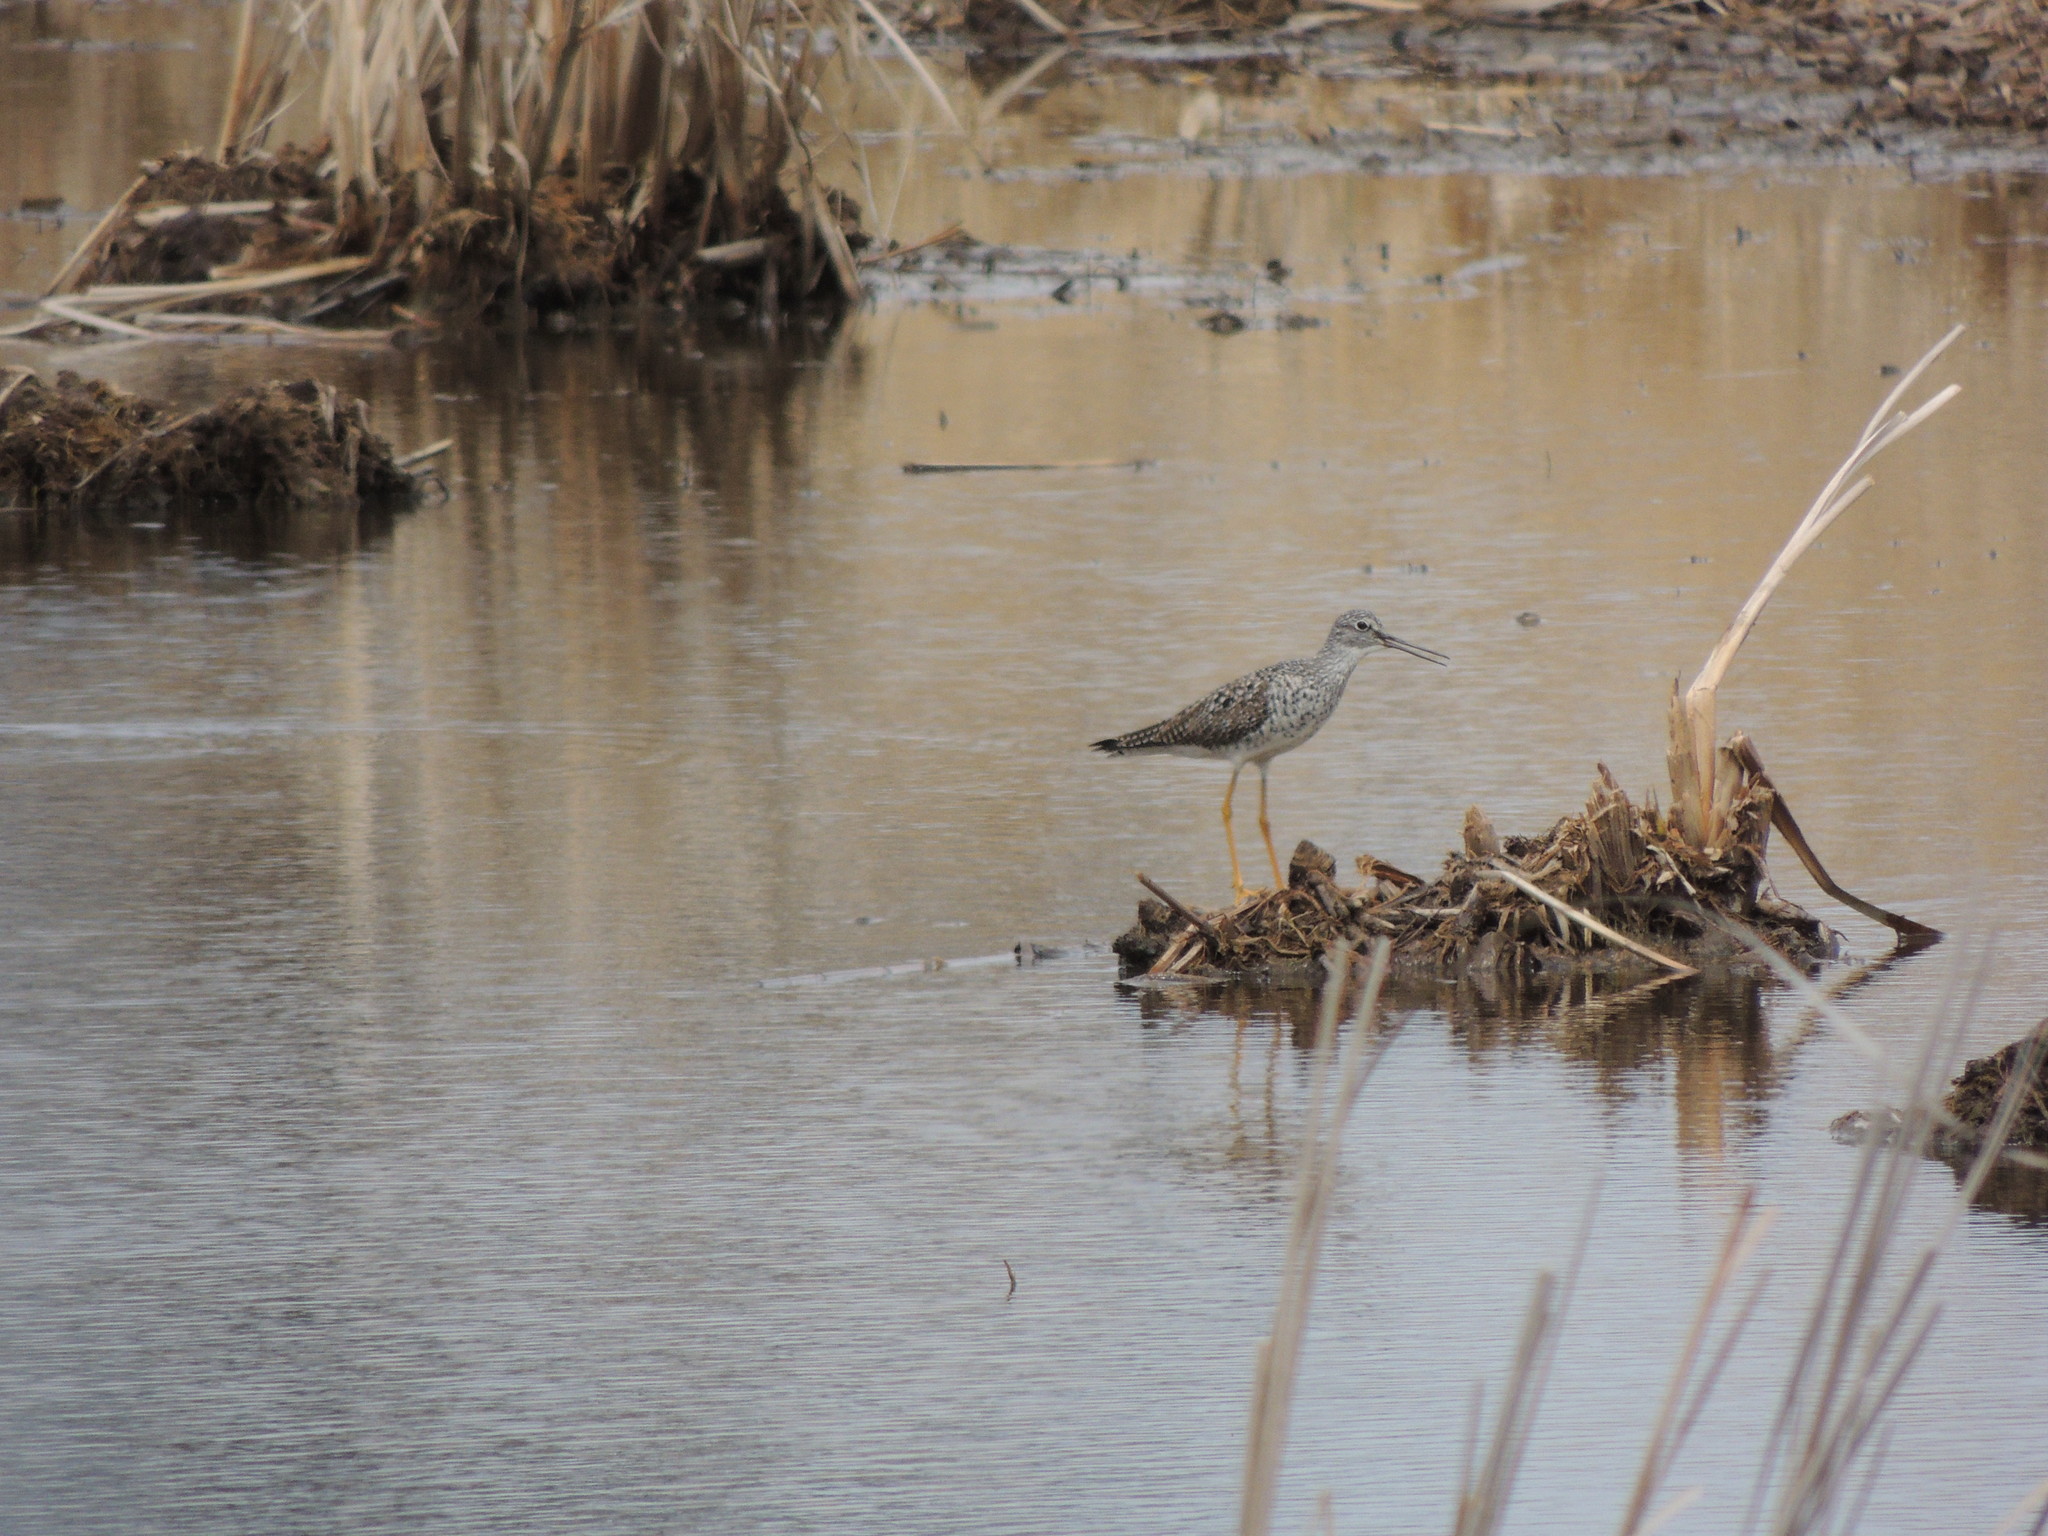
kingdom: Animalia
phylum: Chordata
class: Aves
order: Charadriiformes
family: Scolopacidae
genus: Tringa
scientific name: Tringa melanoleuca
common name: Greater yellowlegs
